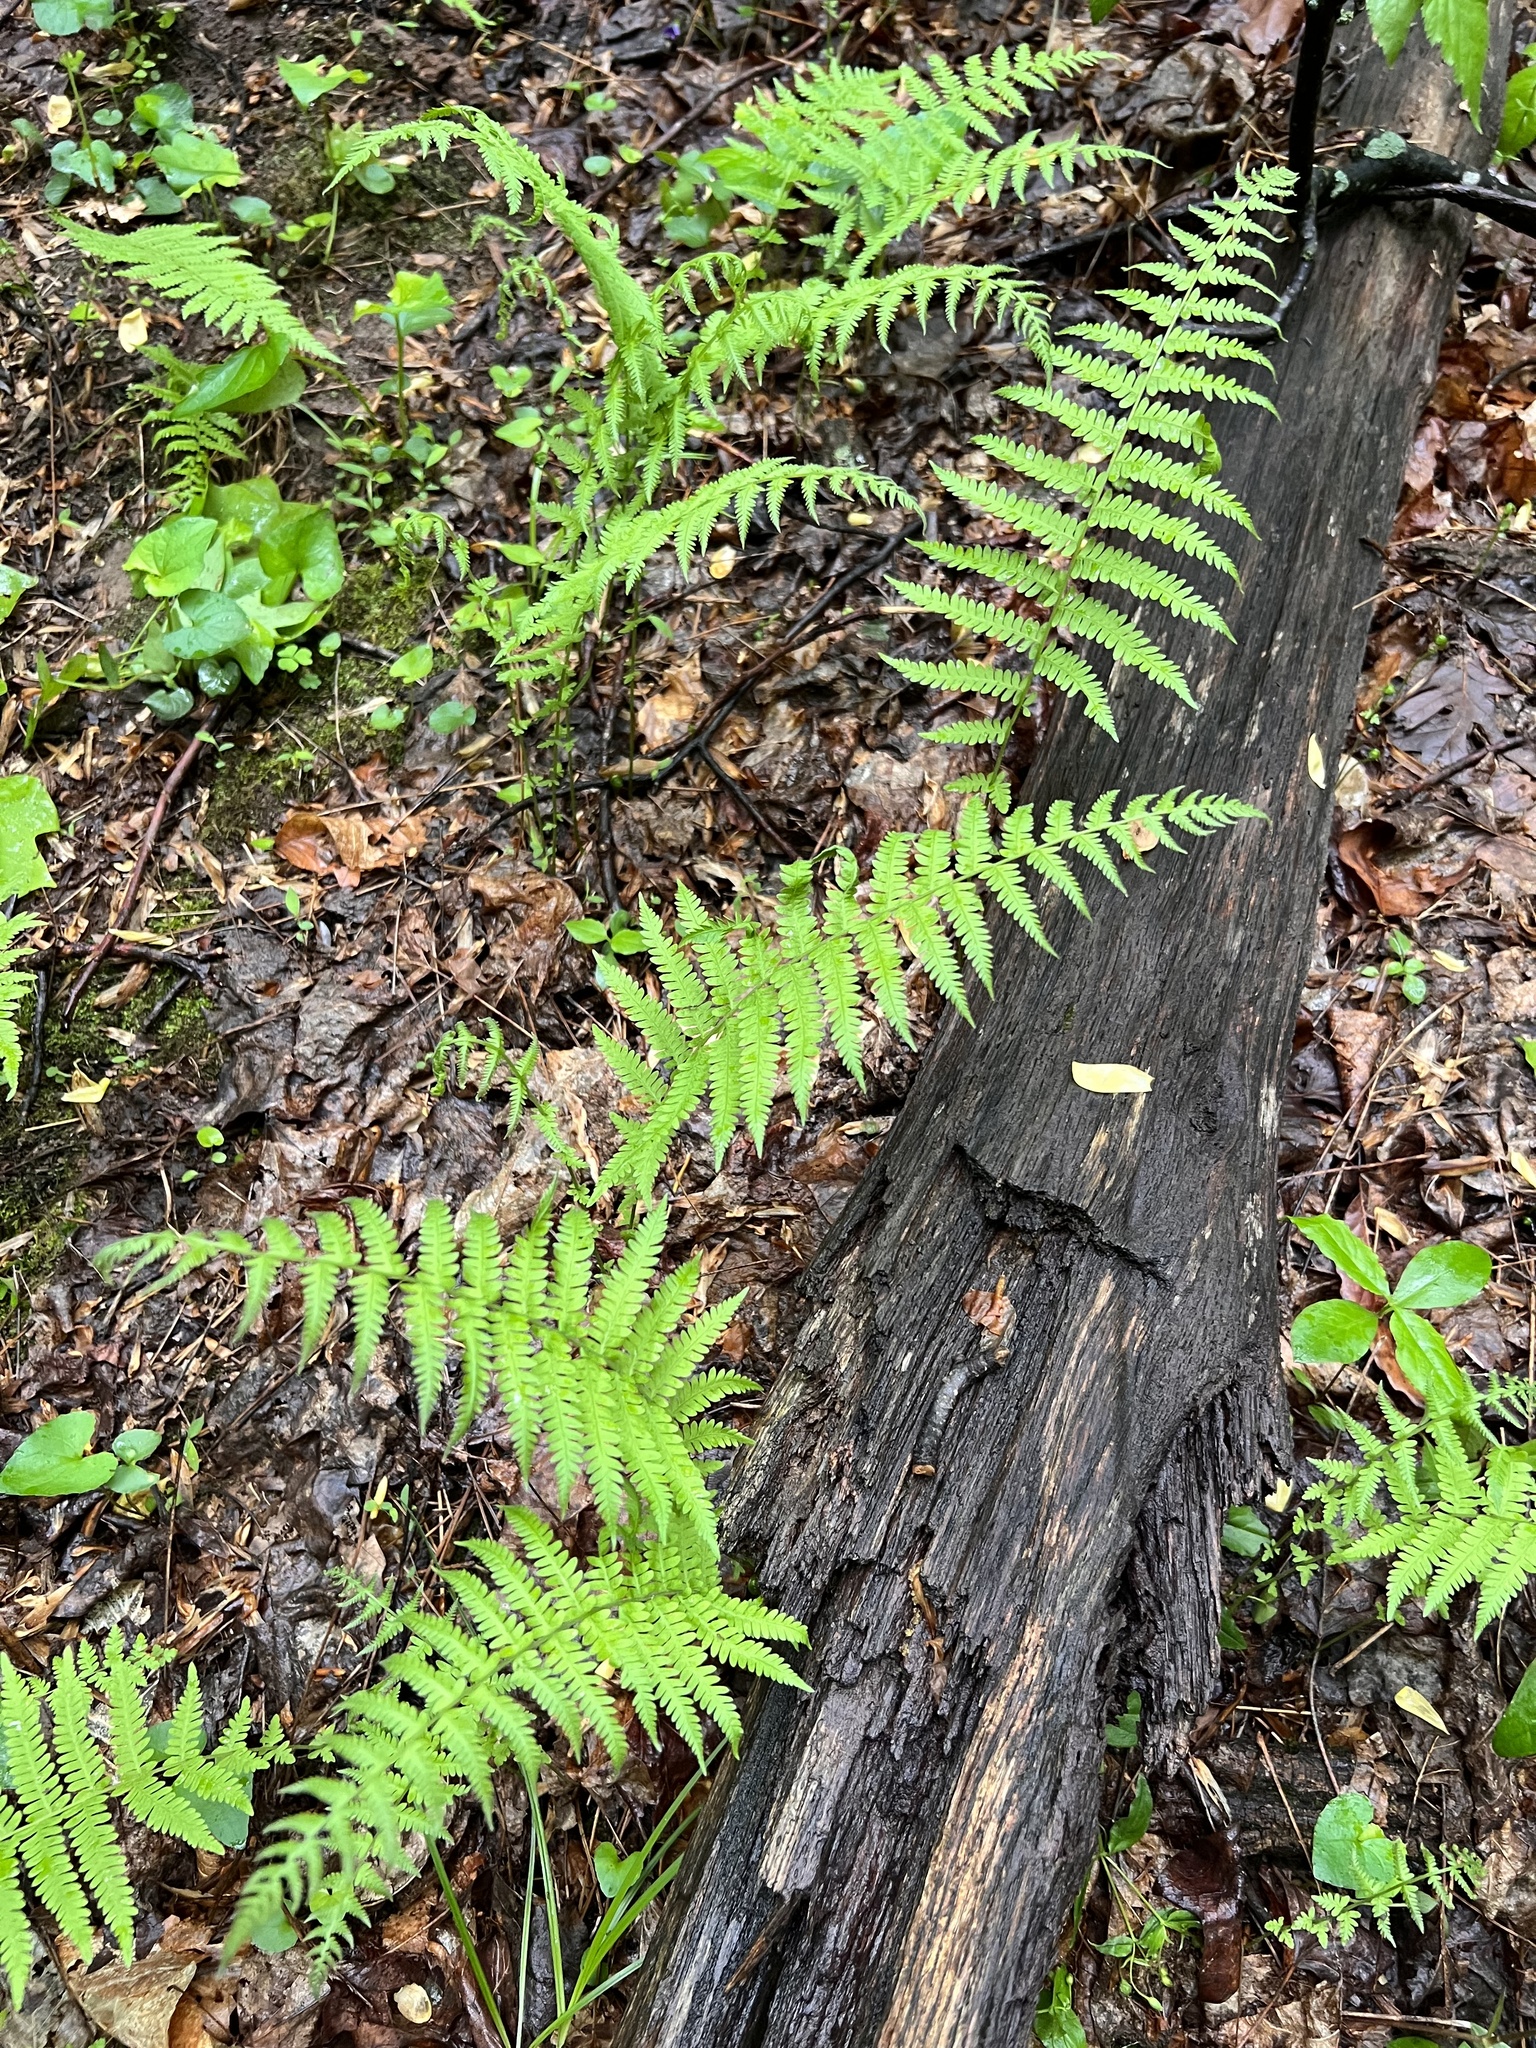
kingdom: Plantae
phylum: Tracheophyta
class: Polypodiopsida
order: Polypodiales
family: Thelypteridaceae
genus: Amauropelta
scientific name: Amauropelta noveboracensis
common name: New york fern
